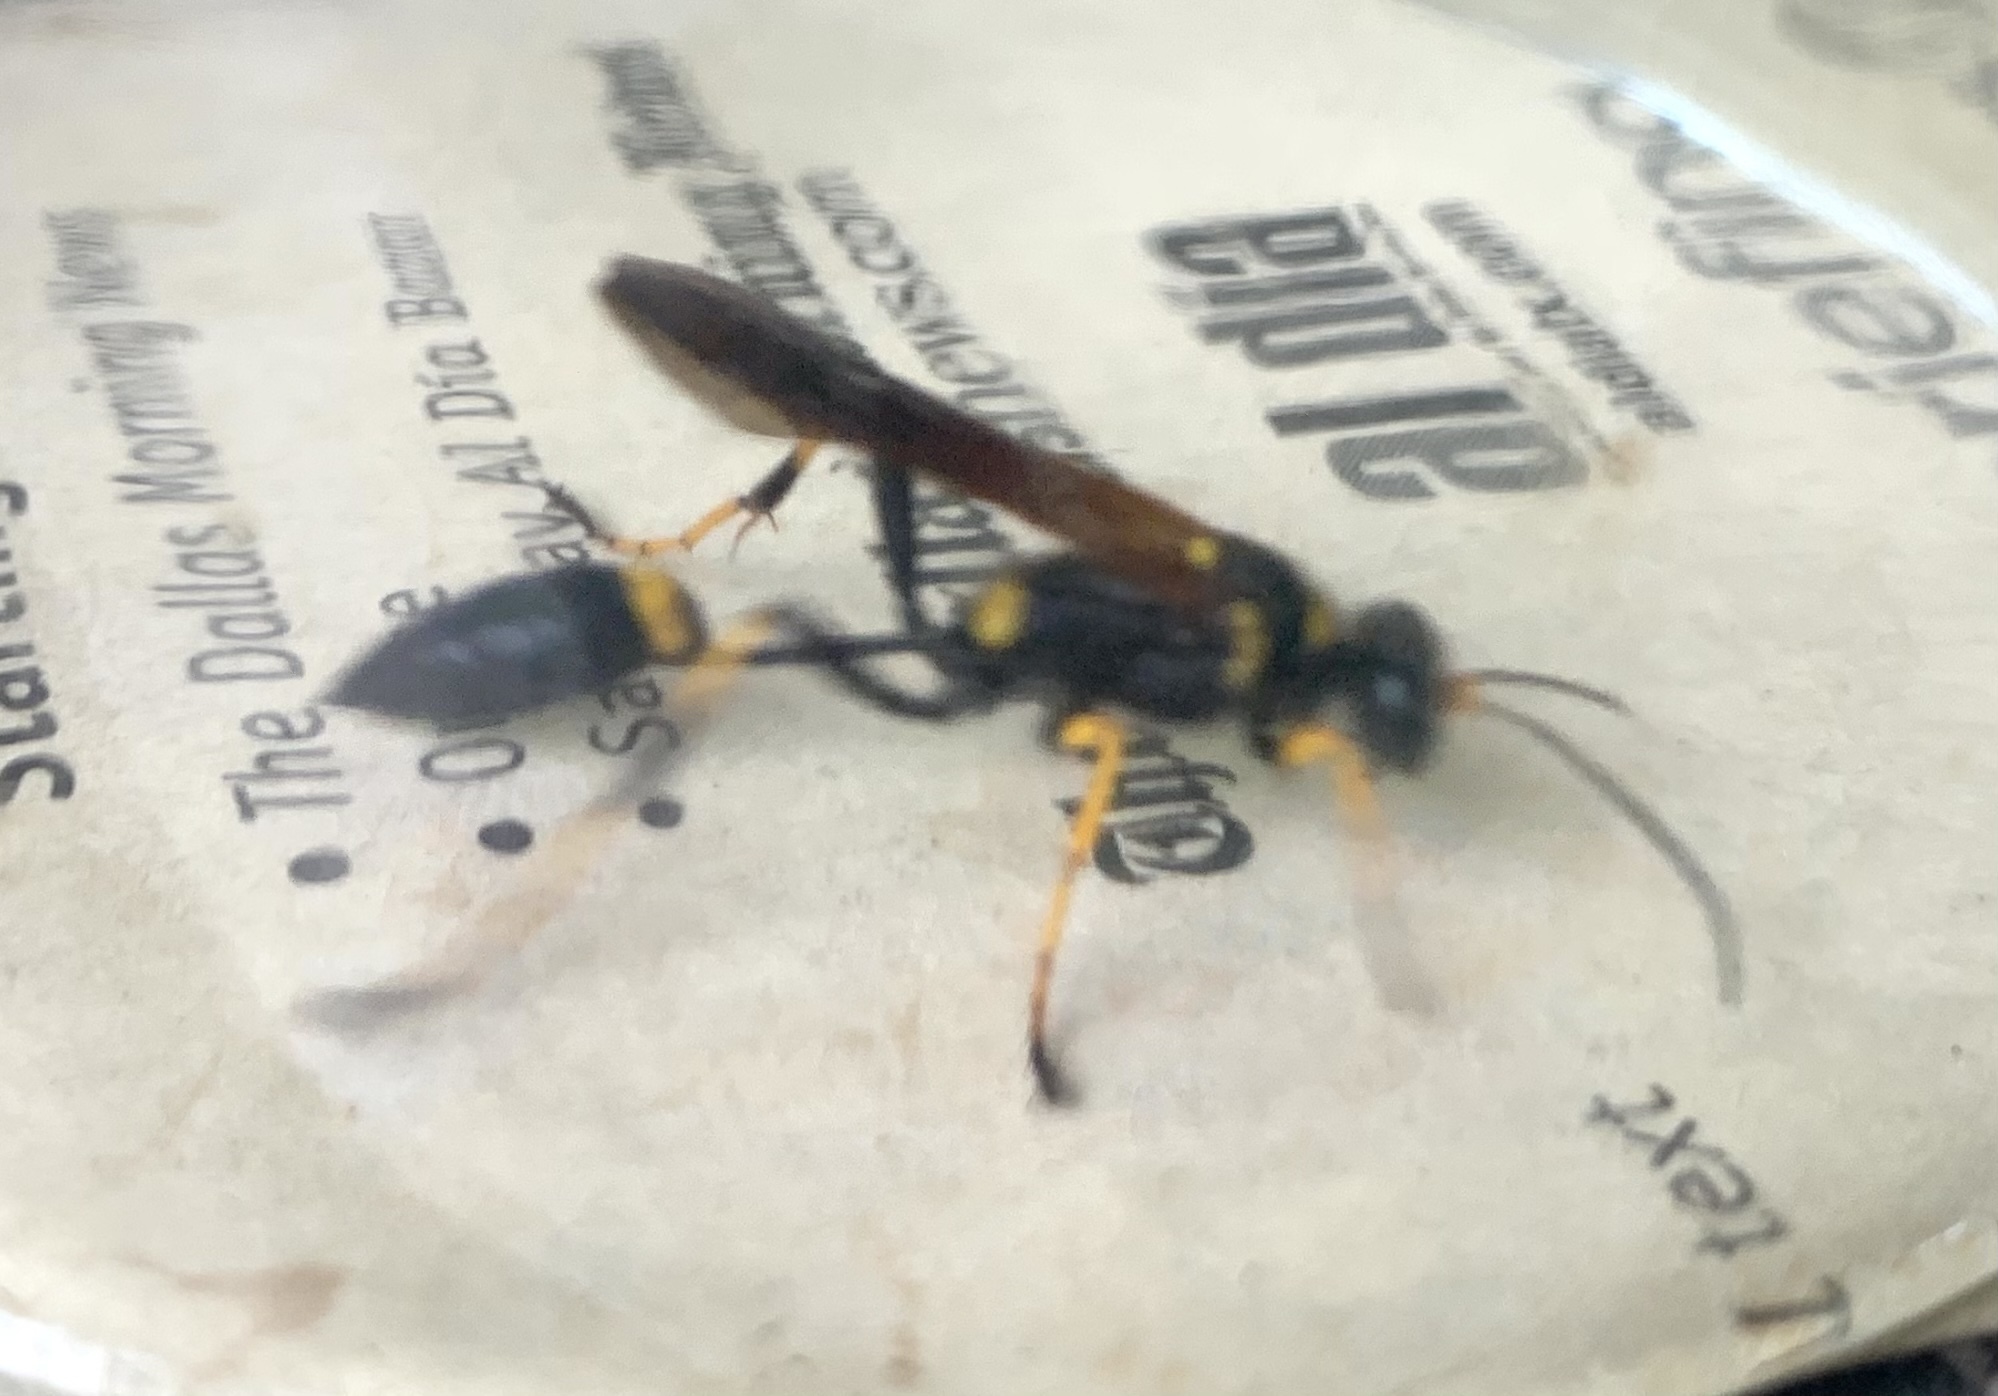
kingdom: Animalia
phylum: Arthropoda
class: Insecta
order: Hymenoptera
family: Sphecidae
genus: Sceliphron
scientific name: Sceliphron caementarium
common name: Mud dauber
